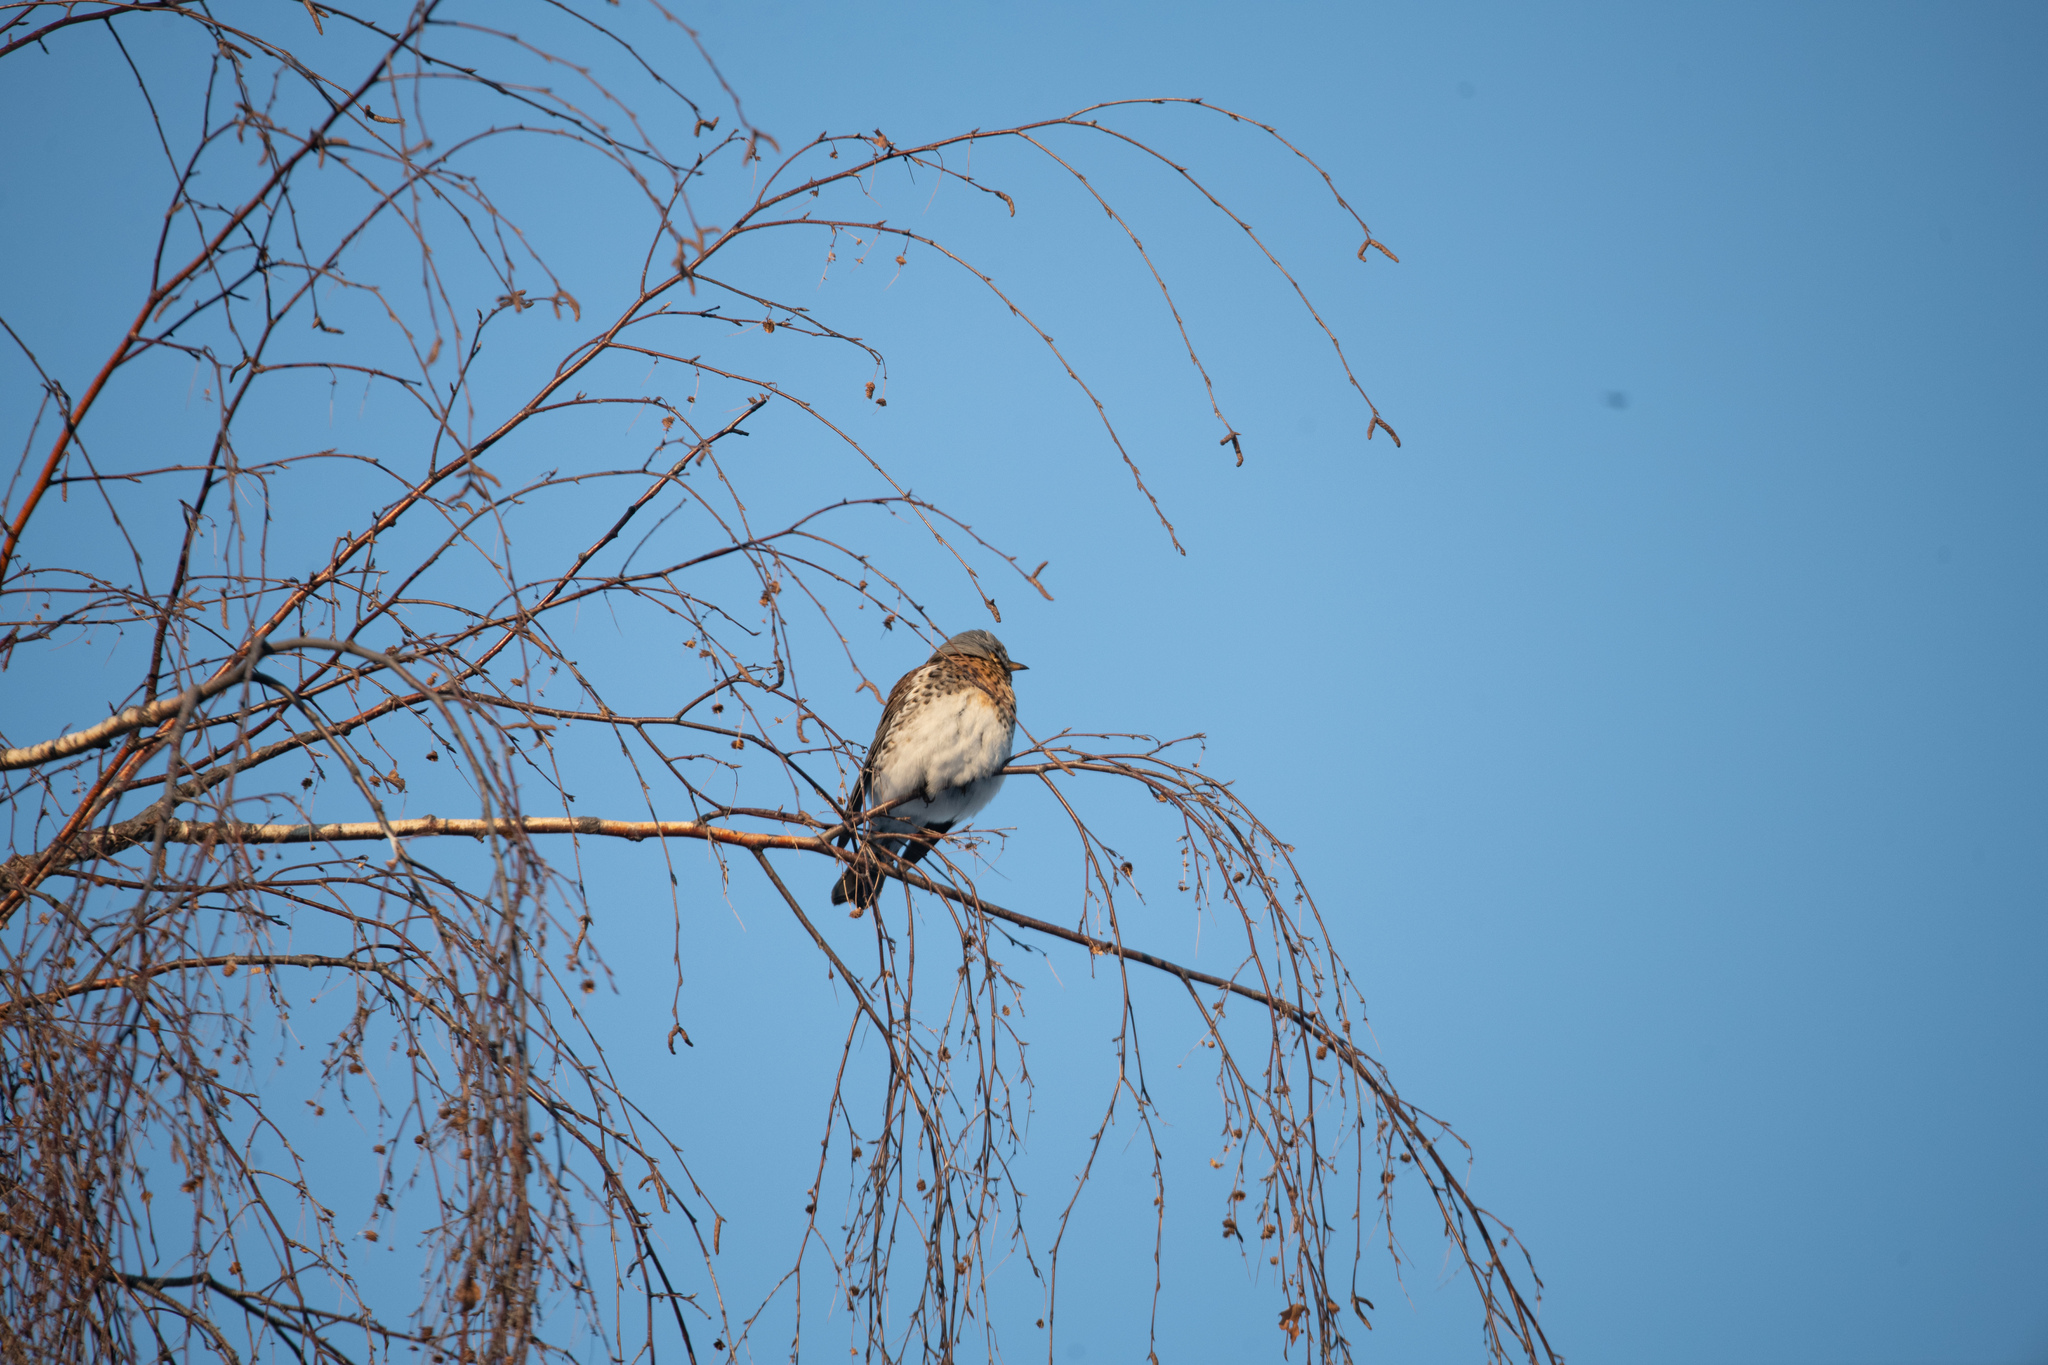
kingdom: Animalia
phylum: Chordata
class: Aves
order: Passeriformes
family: Turdidae
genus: Turdus
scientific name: Turdus pilaris
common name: Fieldfare
